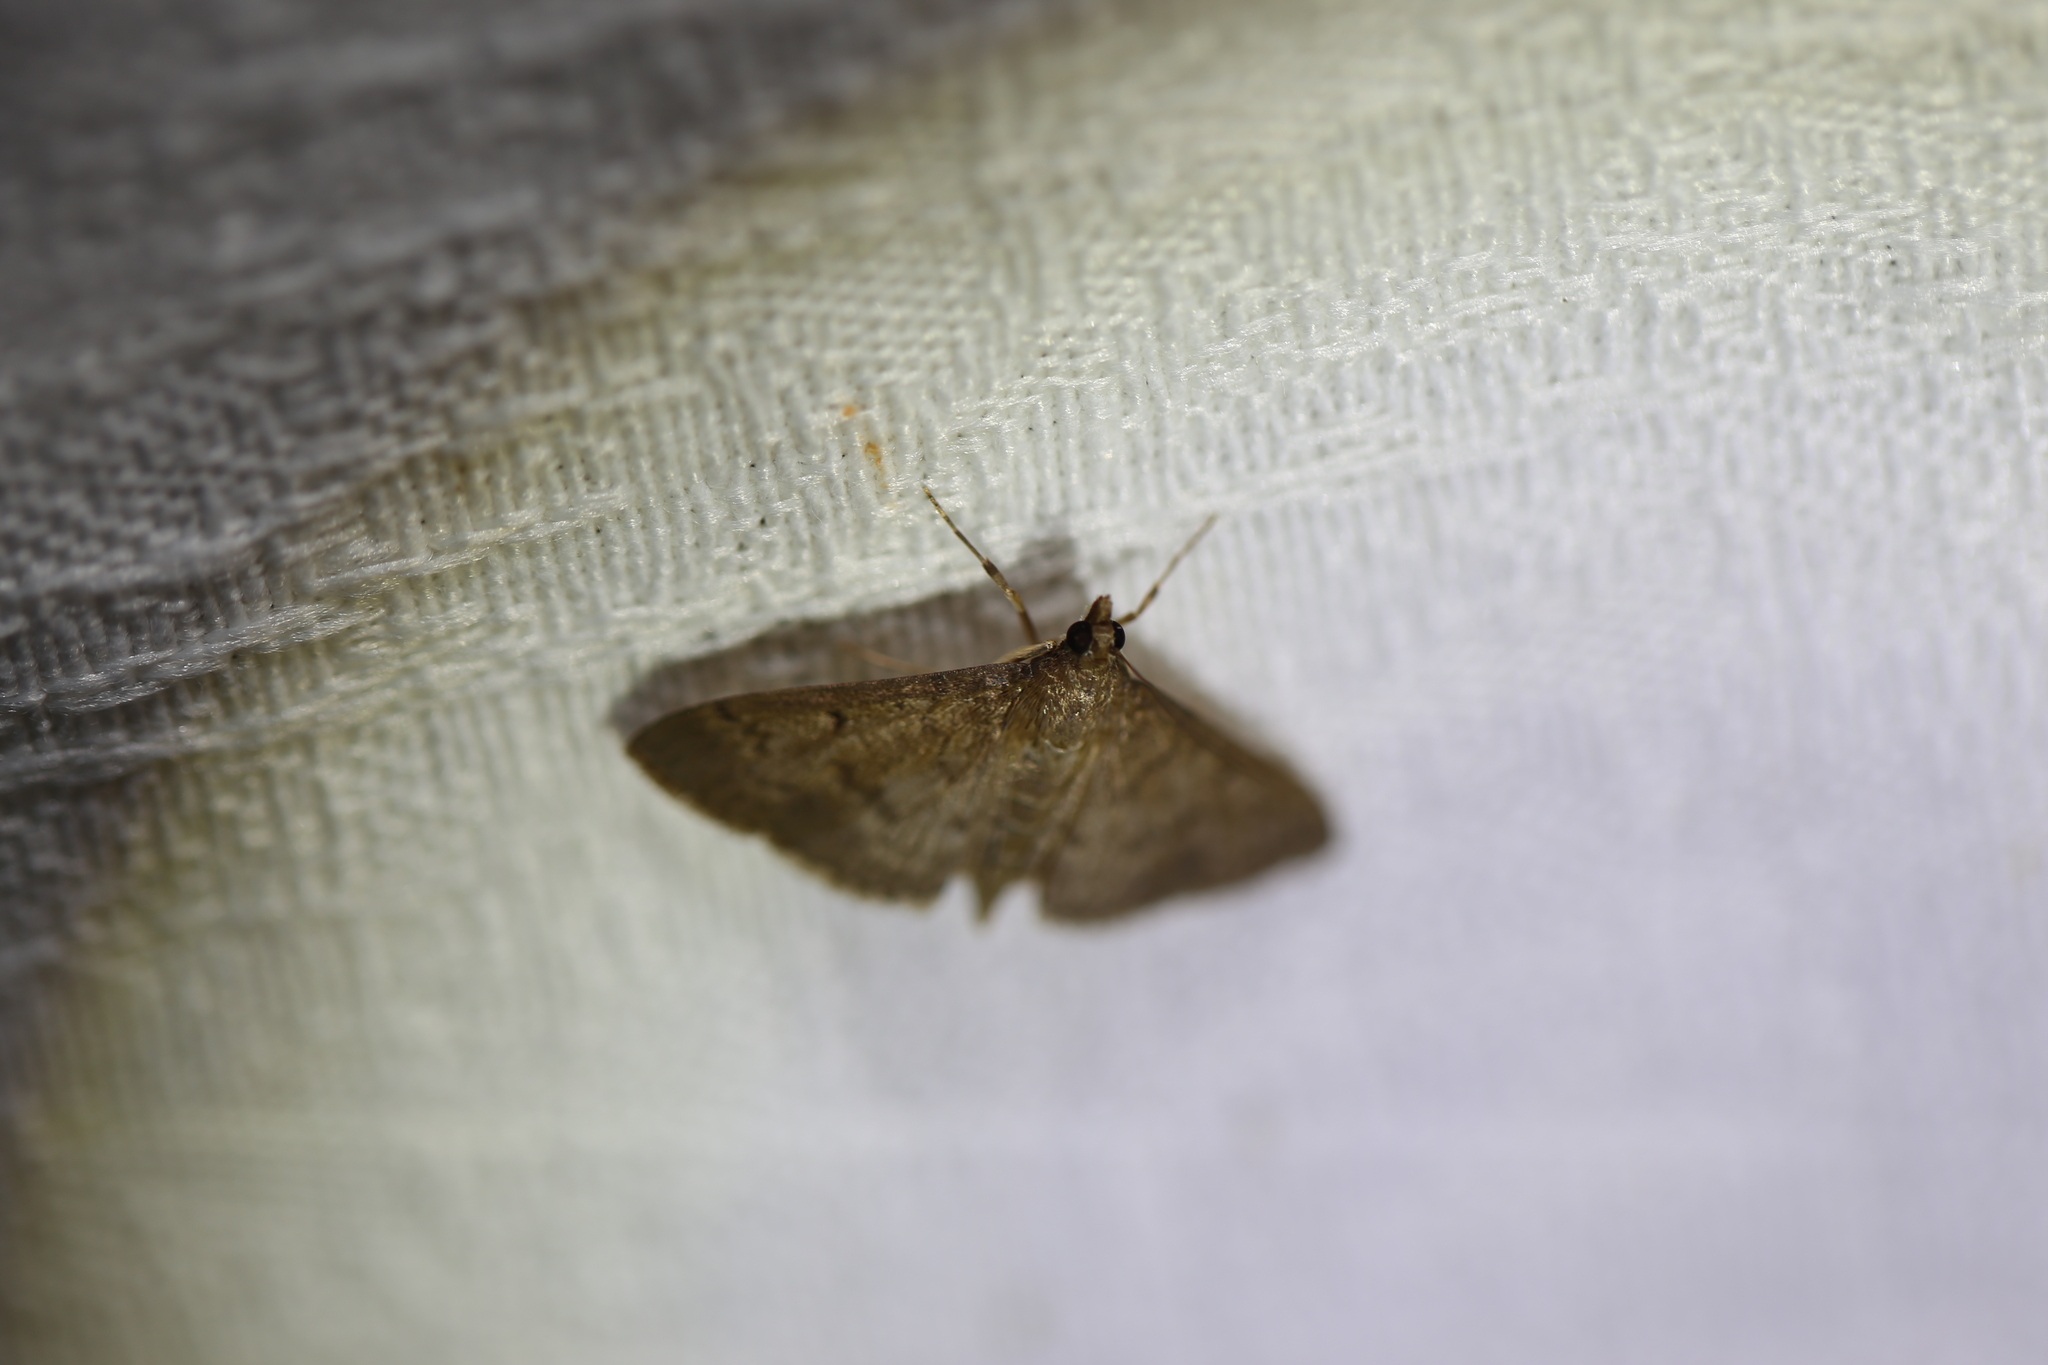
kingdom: Animalia
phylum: Arthropoda
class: Insecta
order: Lepidoptera
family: Crambidae
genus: Herpetogramma
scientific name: Herpetogramma licarsisalis
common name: Grass webworm
